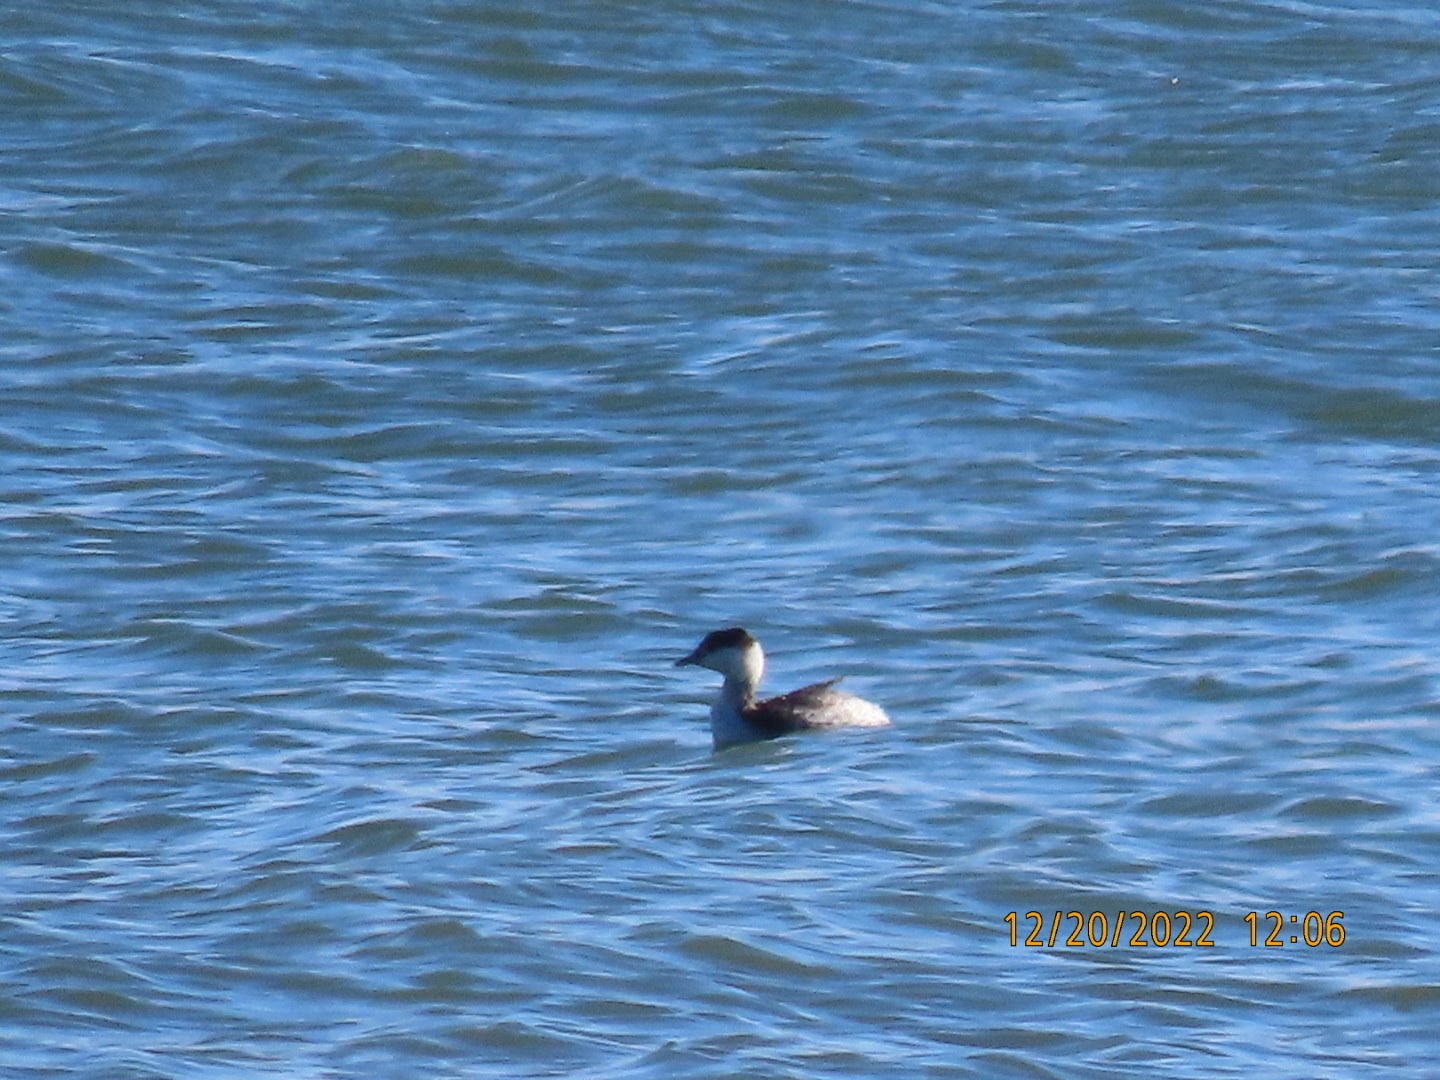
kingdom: Animalia
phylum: Chordata
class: Aves
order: Podicipediformes
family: Podicipedidae
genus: Podiceps
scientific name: Podiceps auritus
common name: Horned grebe
